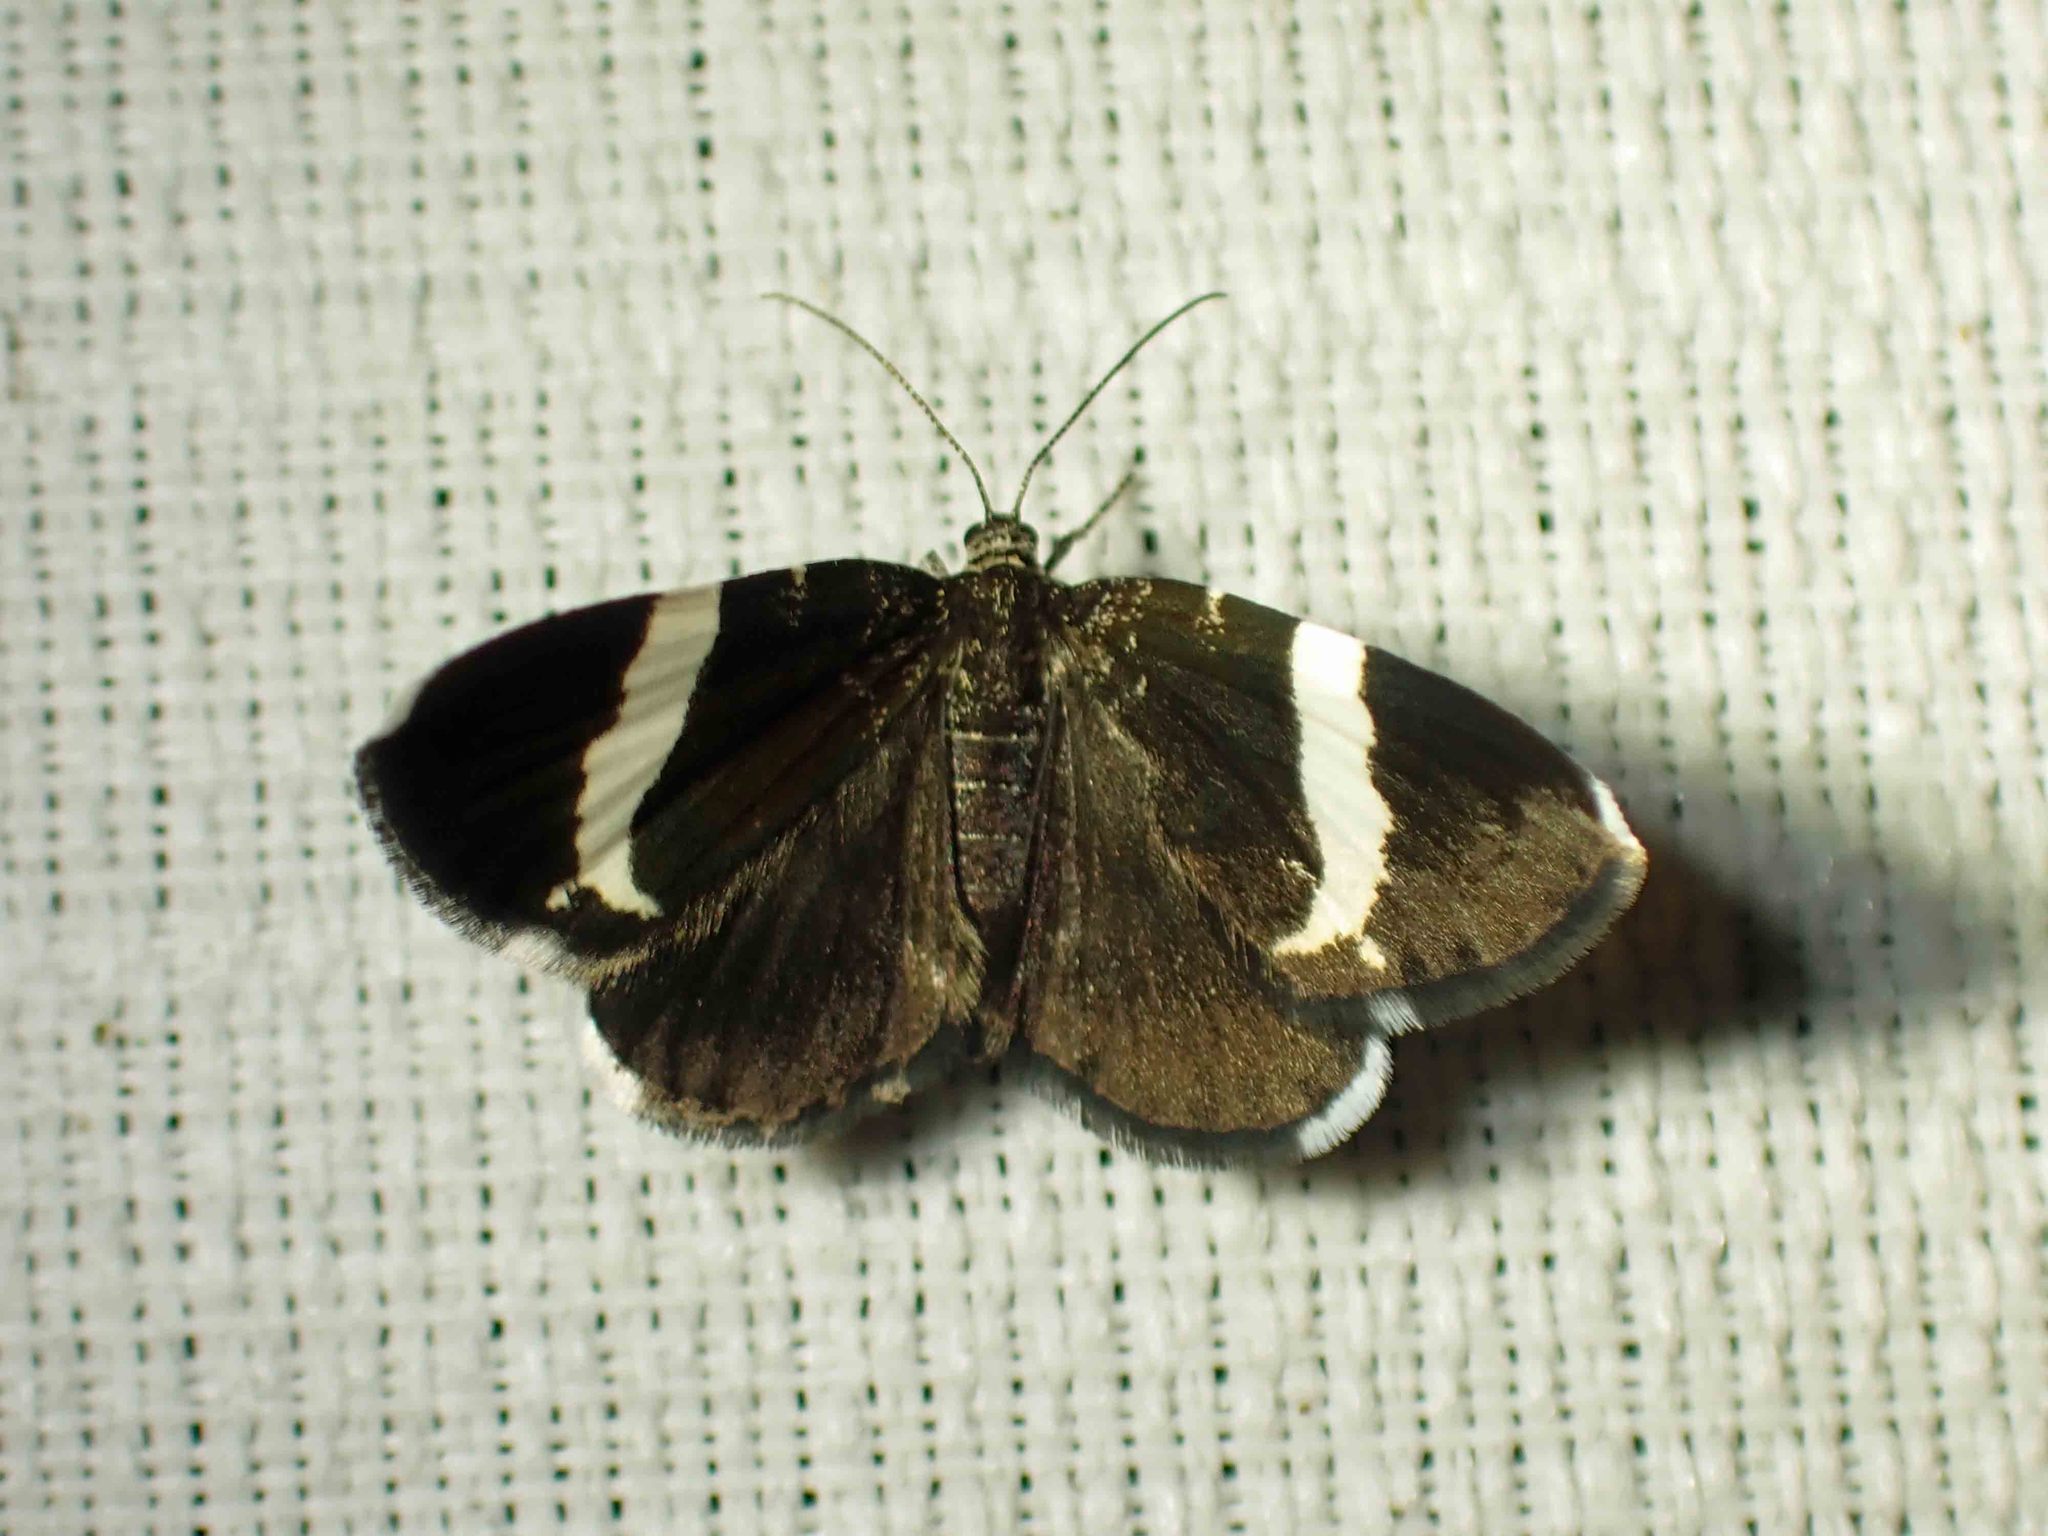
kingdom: Animalia
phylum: Arthropoda
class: Insecta
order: Lepidoptera
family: Geometridae
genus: Trichodezia
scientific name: Trichodezia albovittata
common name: White striped black
